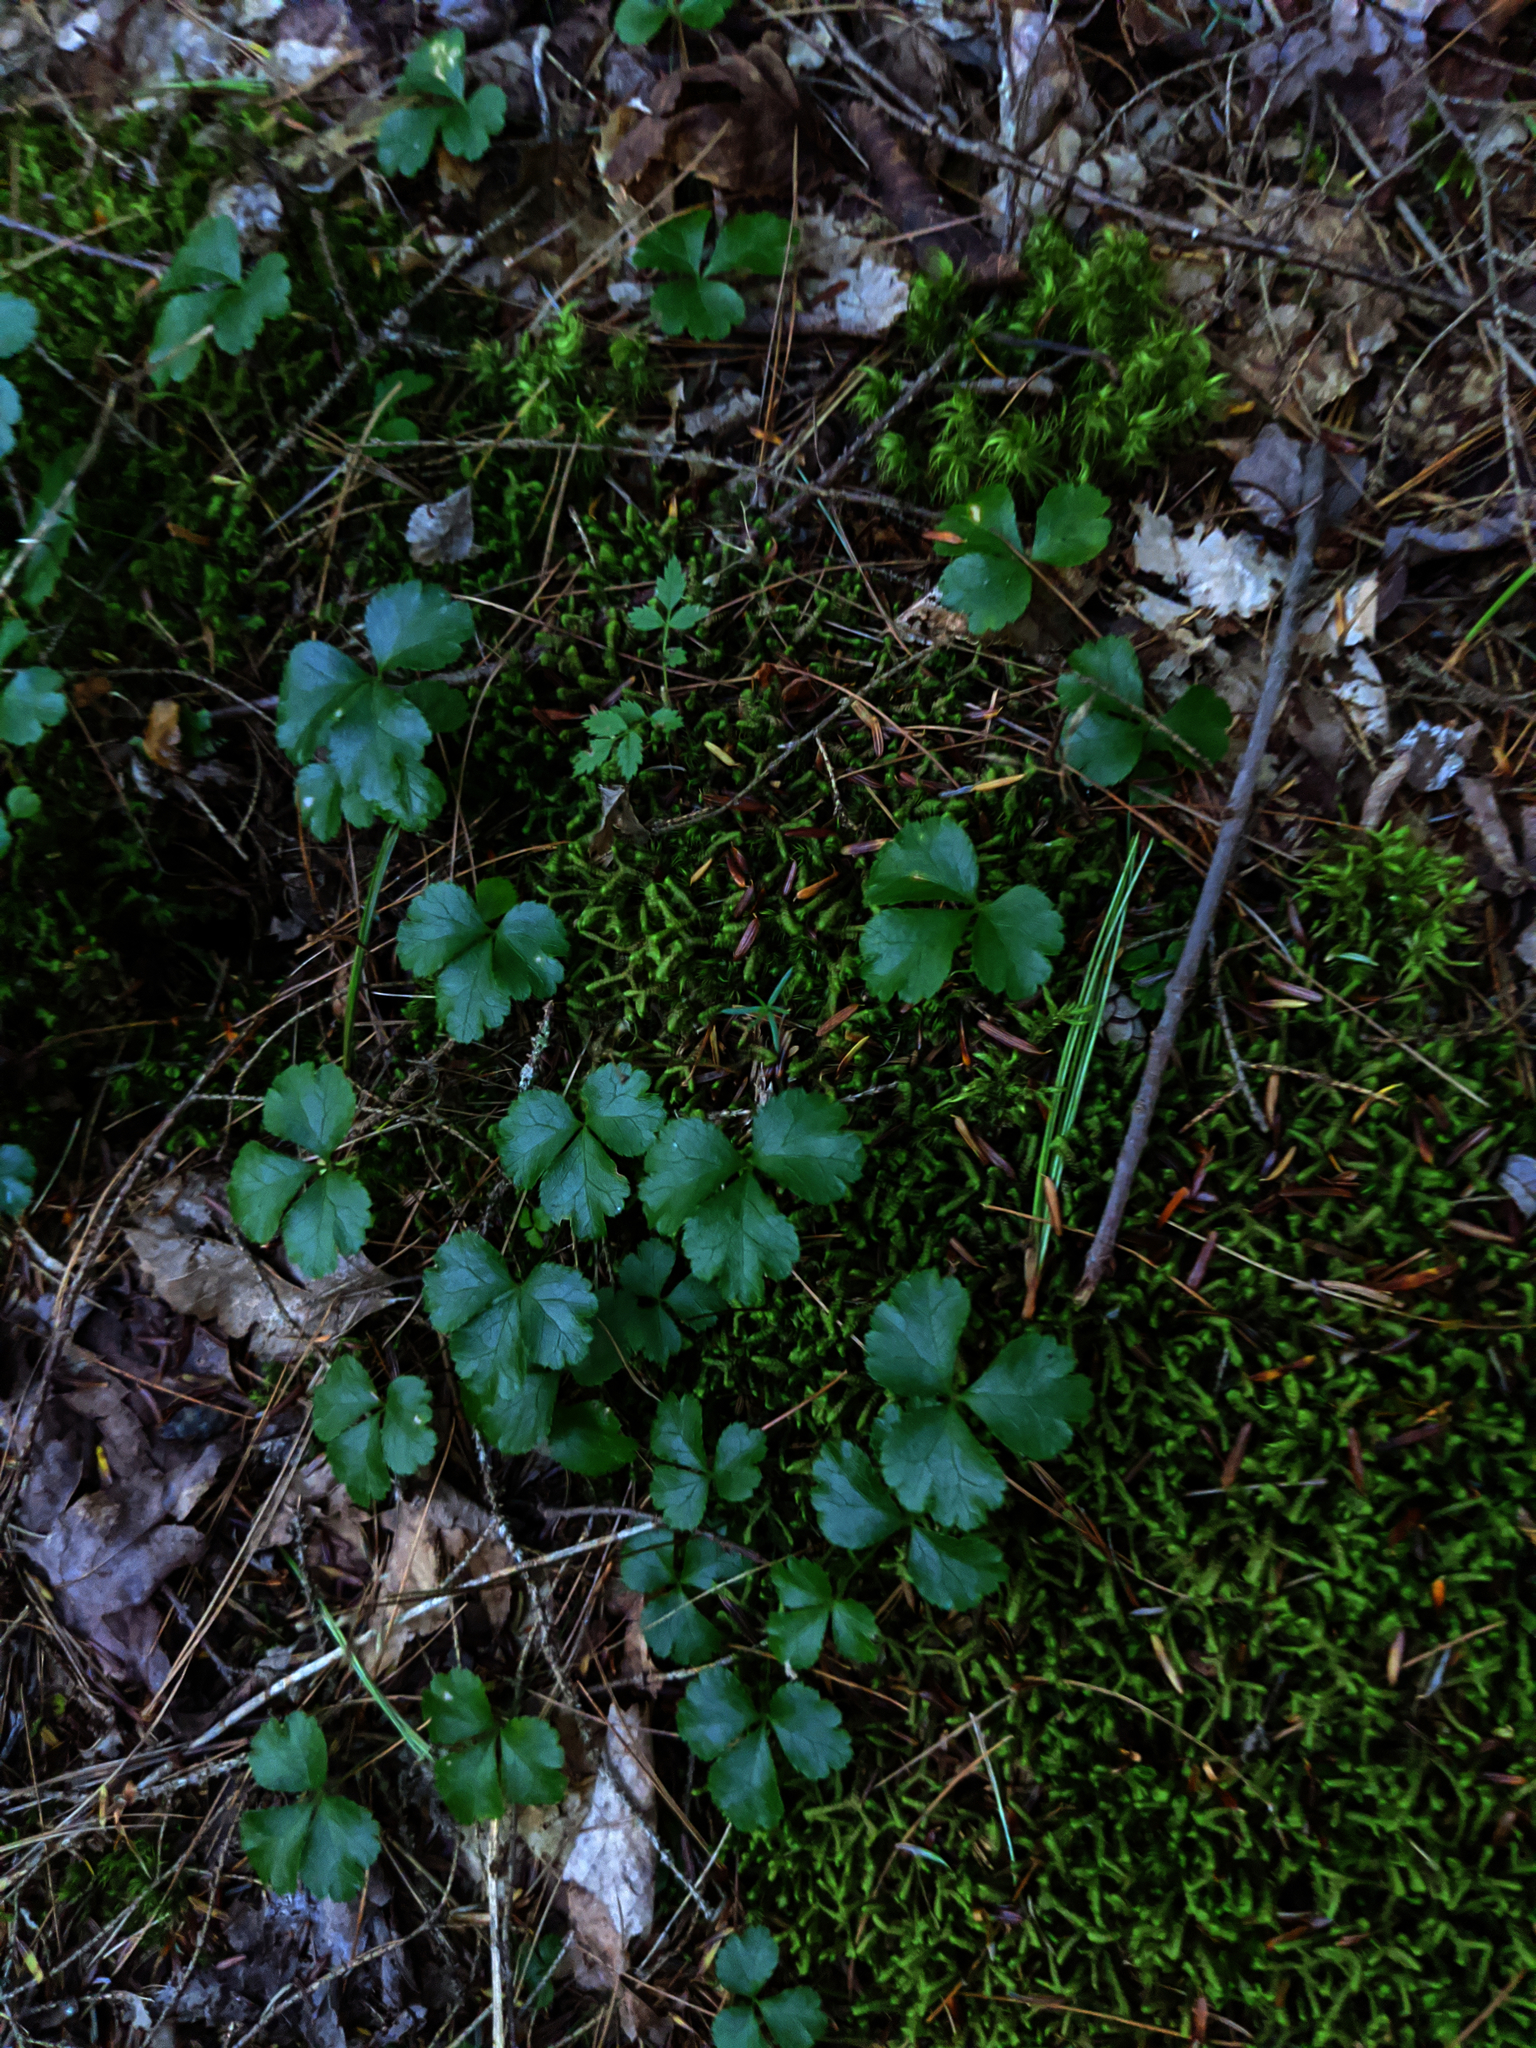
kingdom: Plantae
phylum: Tracheophyta
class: Magnoliopsida
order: Ranunculales
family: Ranunculaceae
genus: Coptis
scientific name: Coptis trifolia
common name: Canker-root
